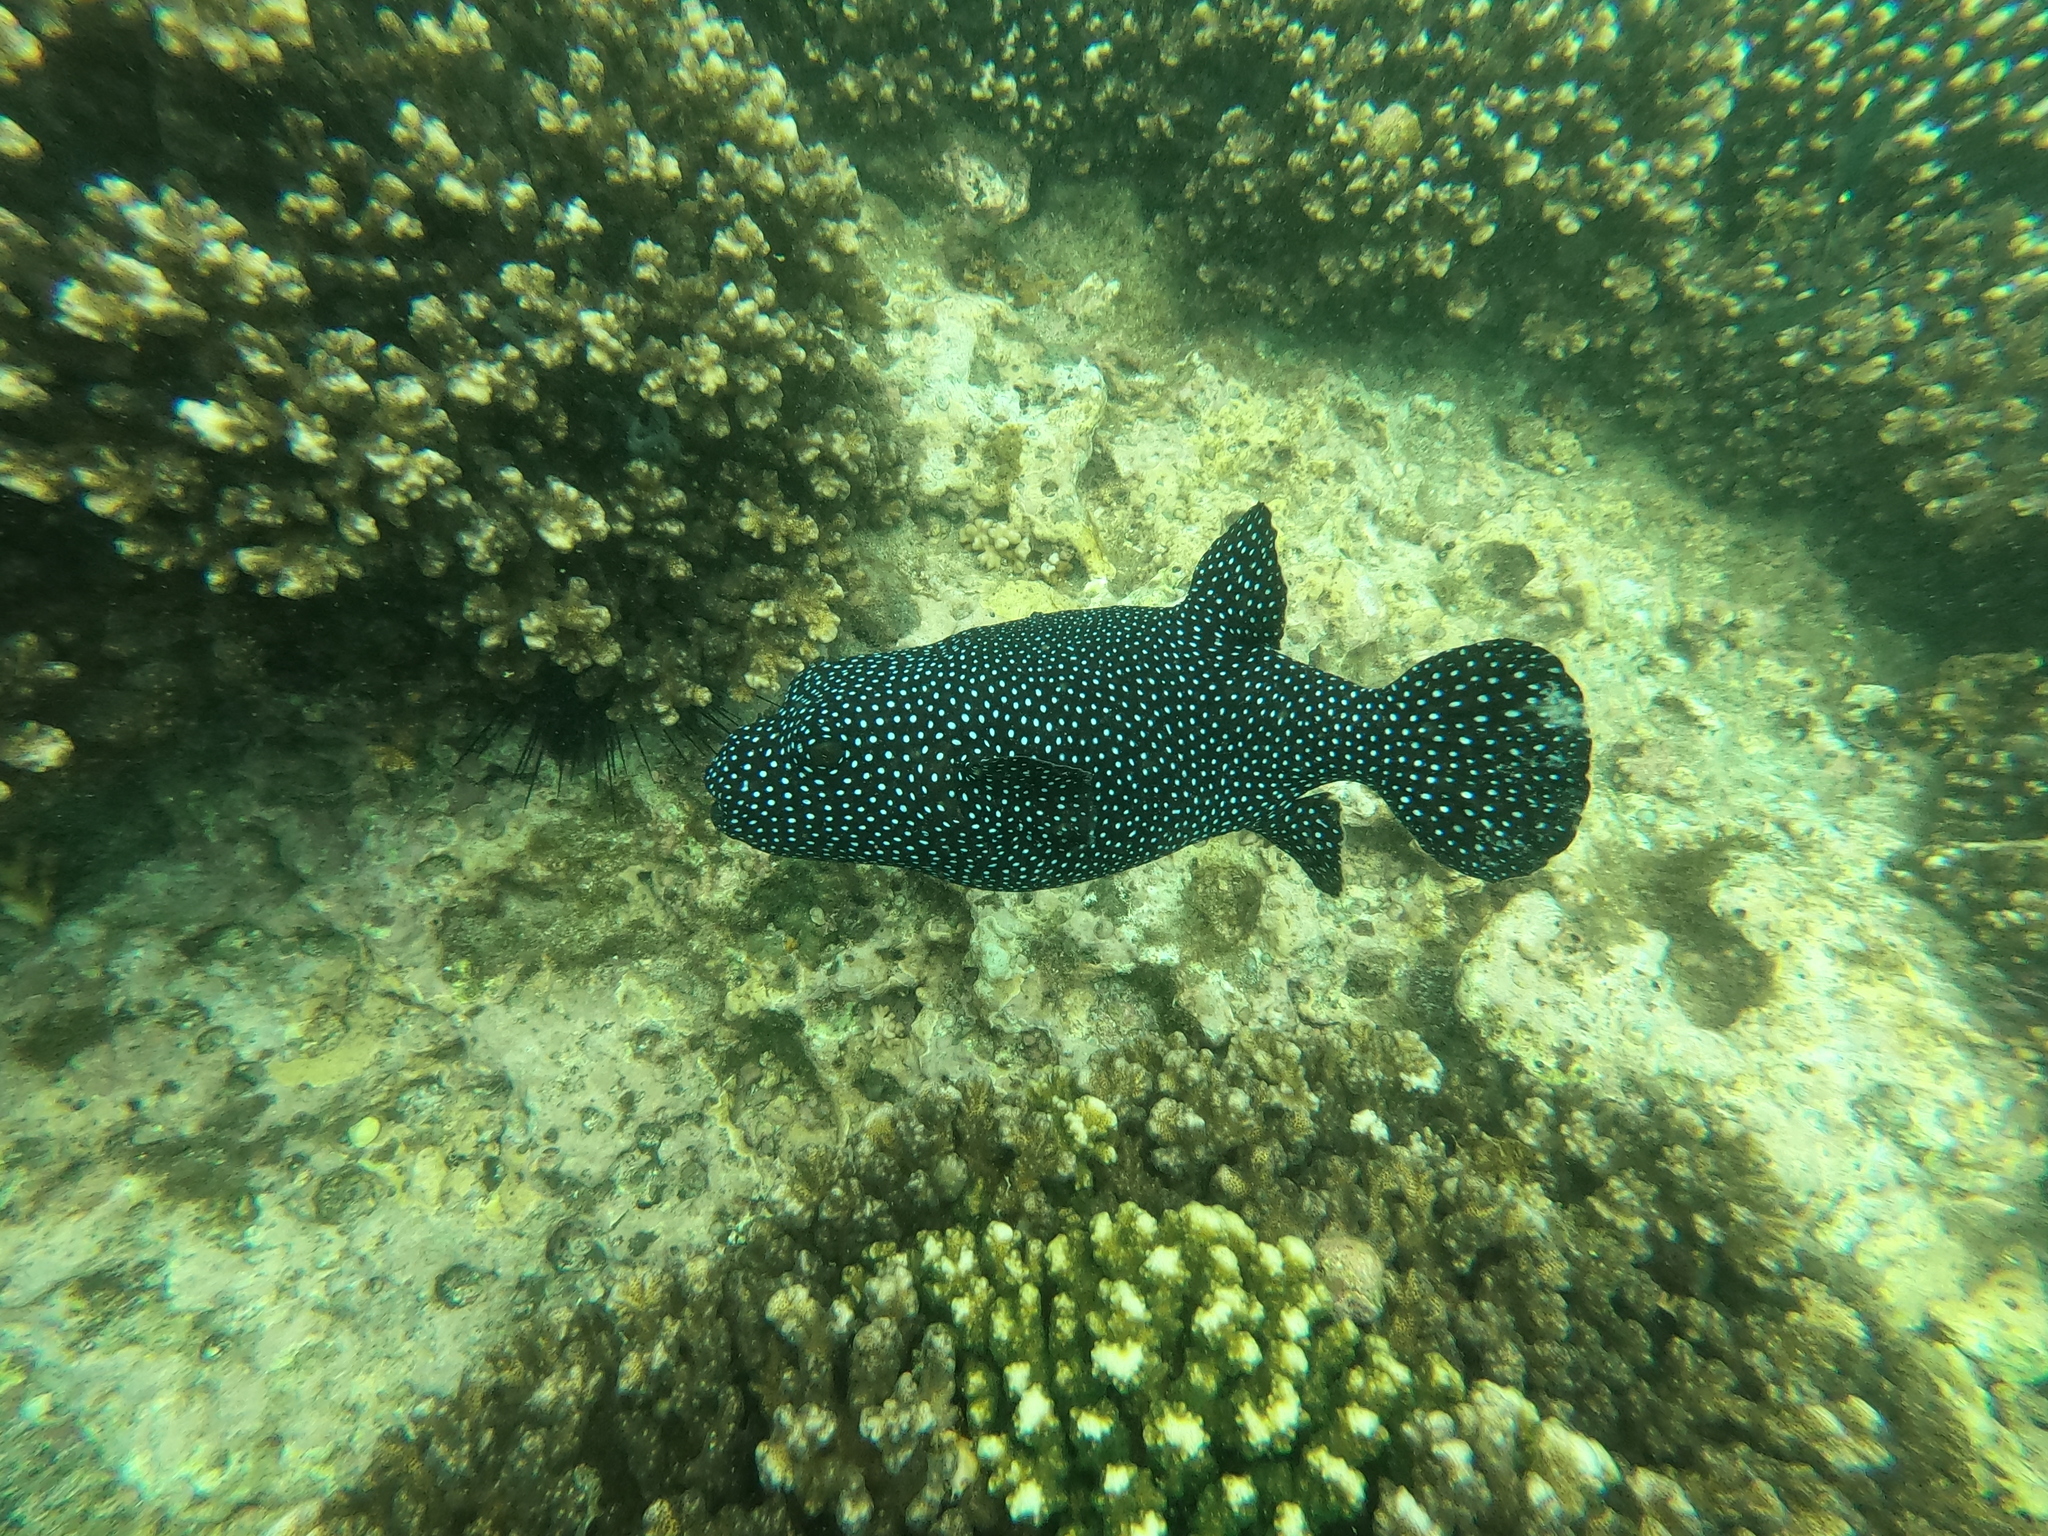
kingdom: Animalia
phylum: Chordata
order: Tetraodontiformes
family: Tetraodontidae
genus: Arothron
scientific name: Arothron meleagris
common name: Guinea-fowl pufferfish
